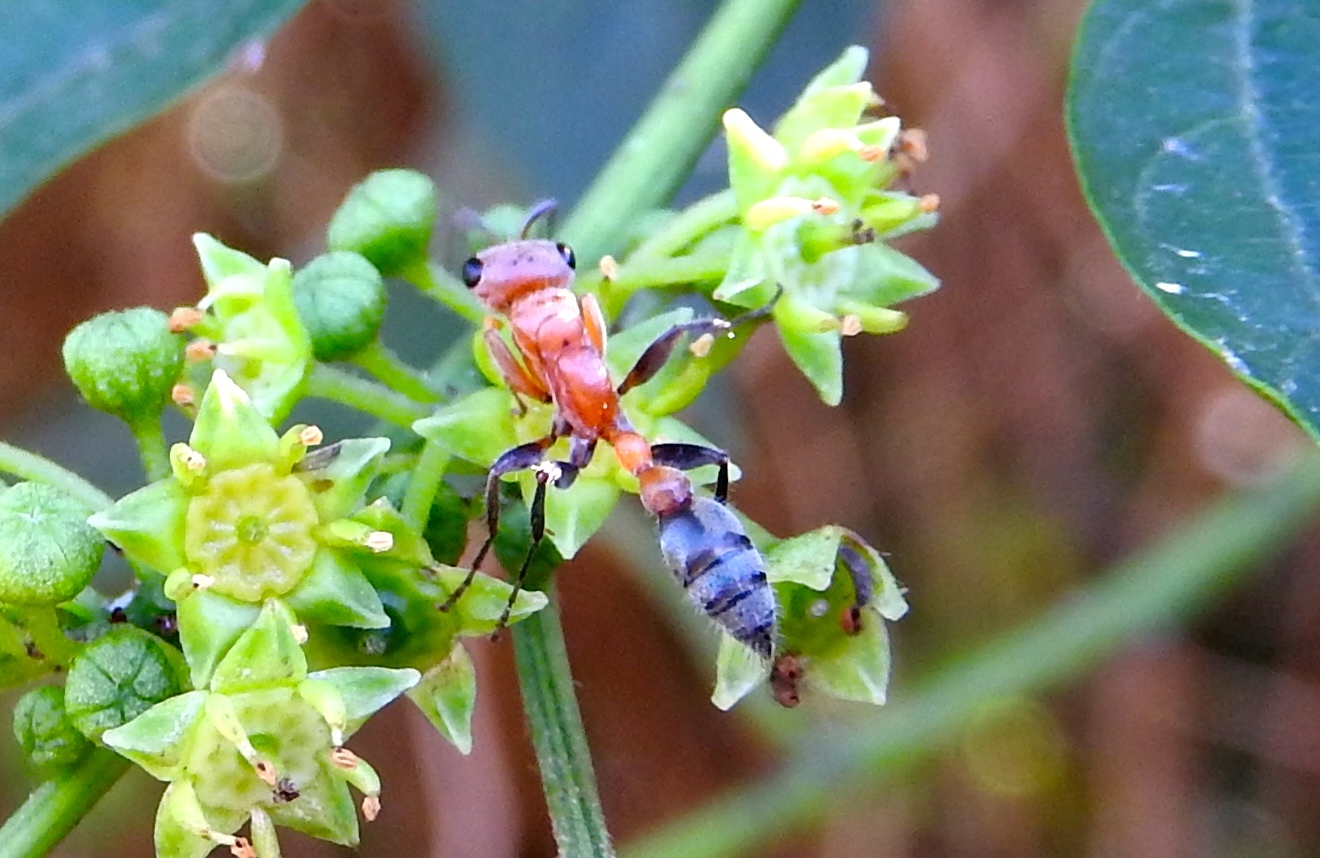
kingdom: Animalia
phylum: Arthropoda
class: Insecta
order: Hymenoptera
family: Formicidae
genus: Pseudomyrmex
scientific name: Pseudomyrmex gracilis
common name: Graceful twig ant
